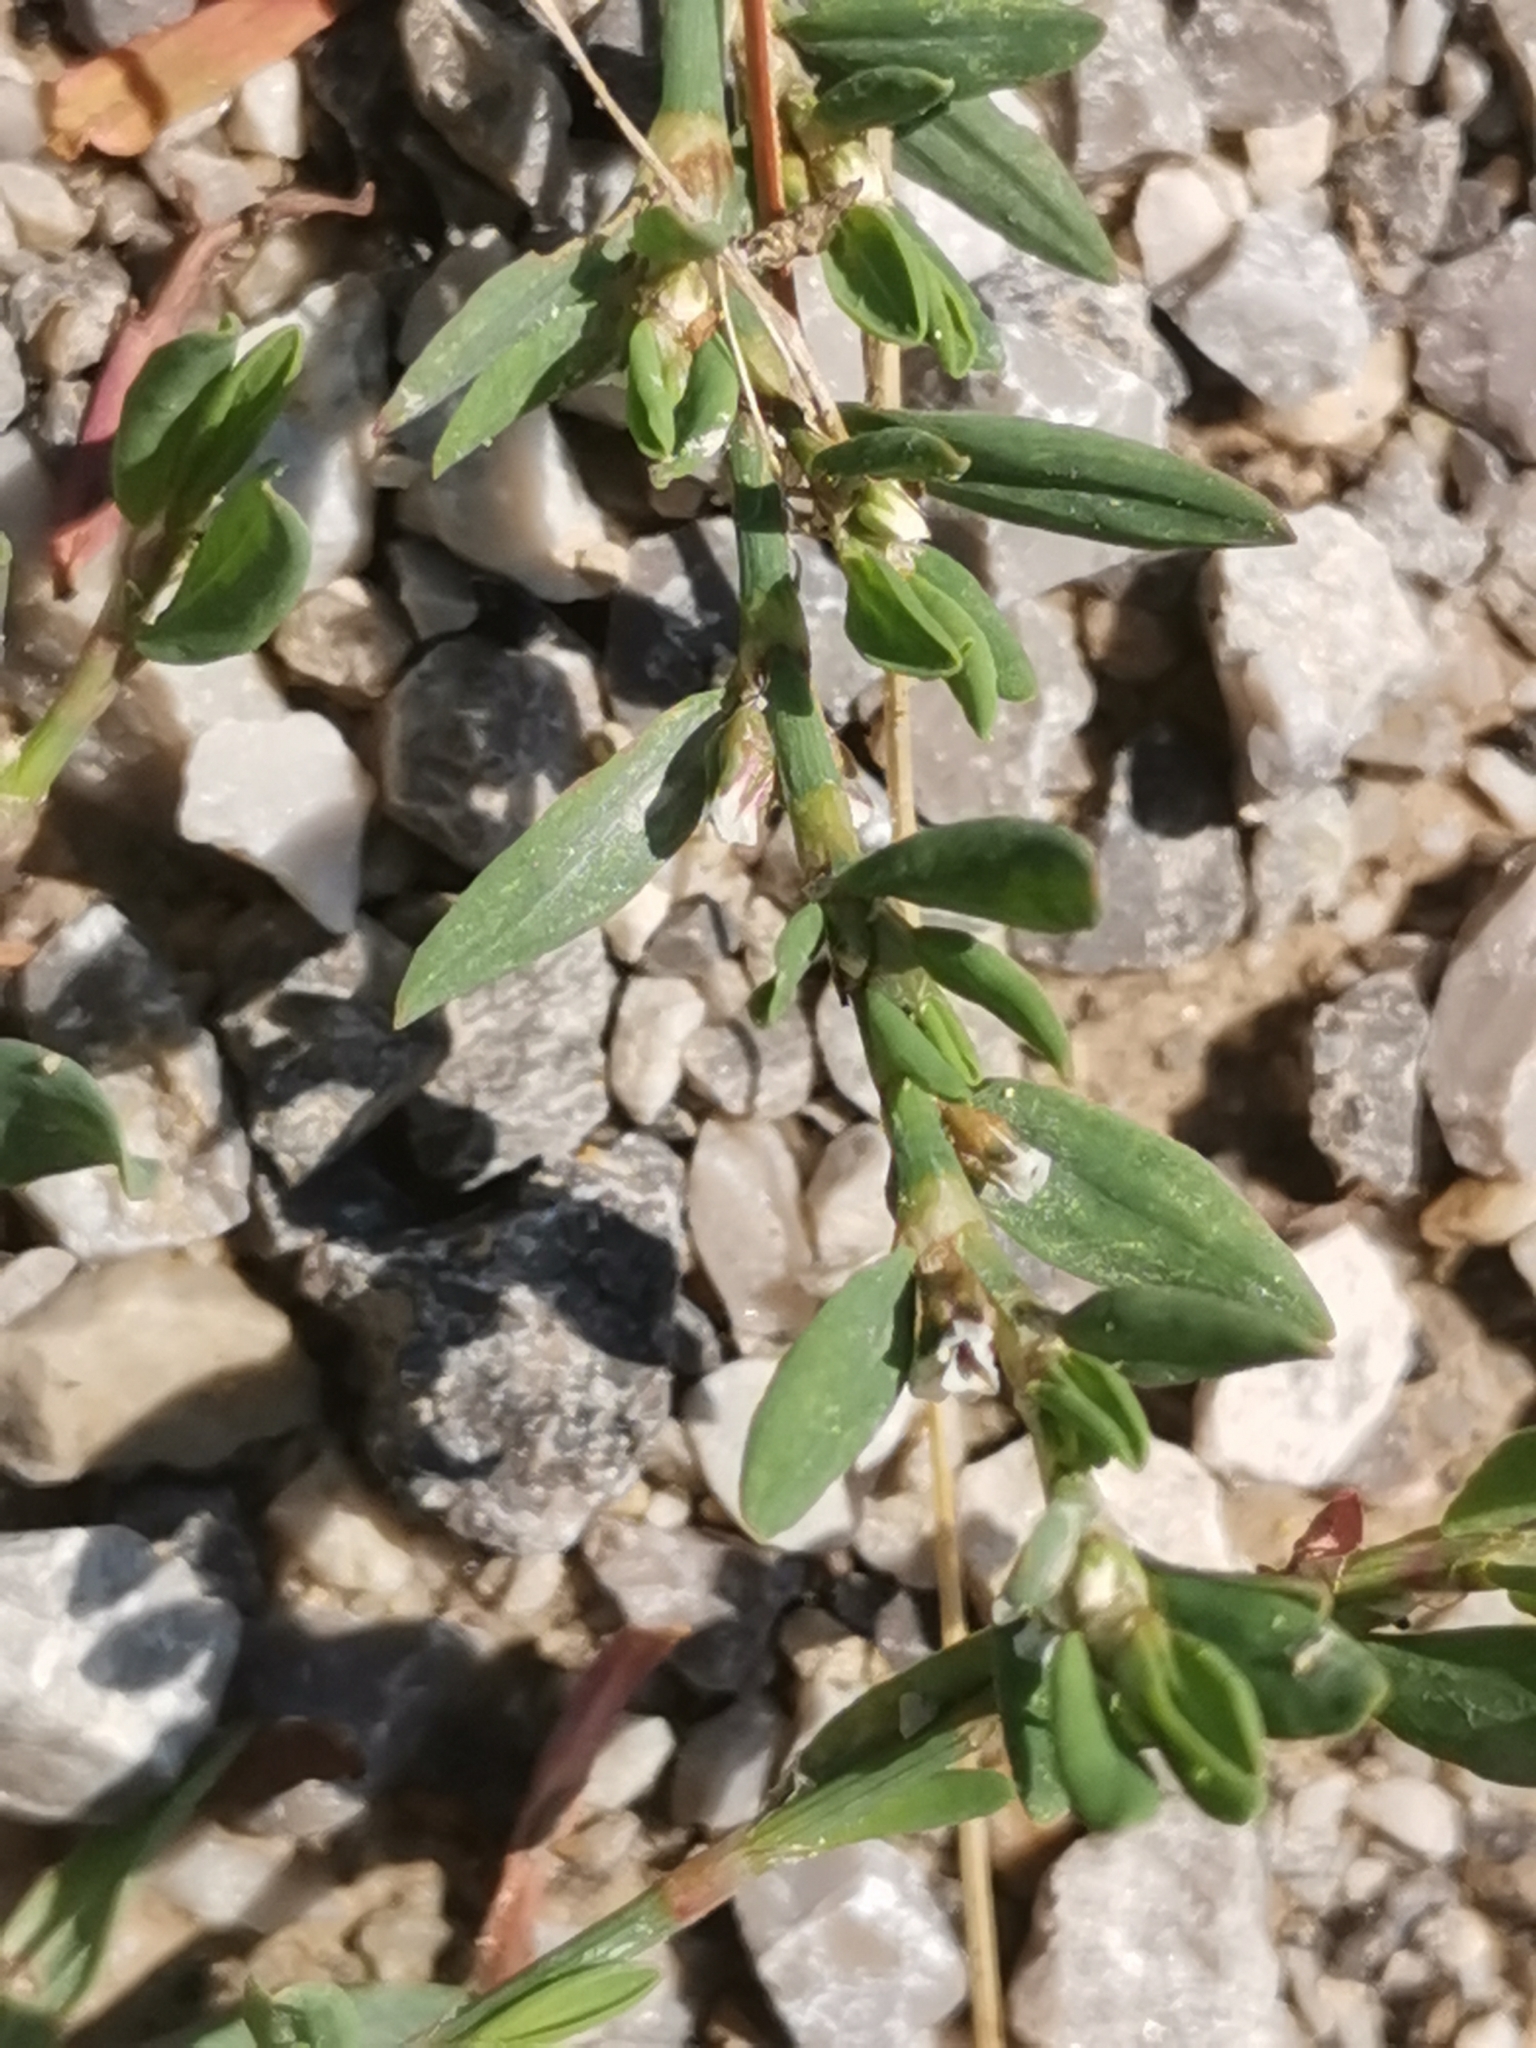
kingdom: Plantae
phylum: Tracheophyta
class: Magnoliopsida
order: Caryophyllales
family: Polygonaceae
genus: Polygonum
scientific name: Polygonum arenastrum
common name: Equal-leaved knotgrass
